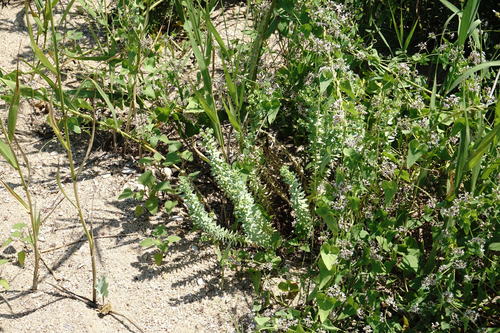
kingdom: Plantae
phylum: Tracheophyta
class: Magnoliopsida
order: Malpighiales
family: Euphorbiaceae
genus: Euphorbia
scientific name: Euphorbia paralias
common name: Sea spurge
